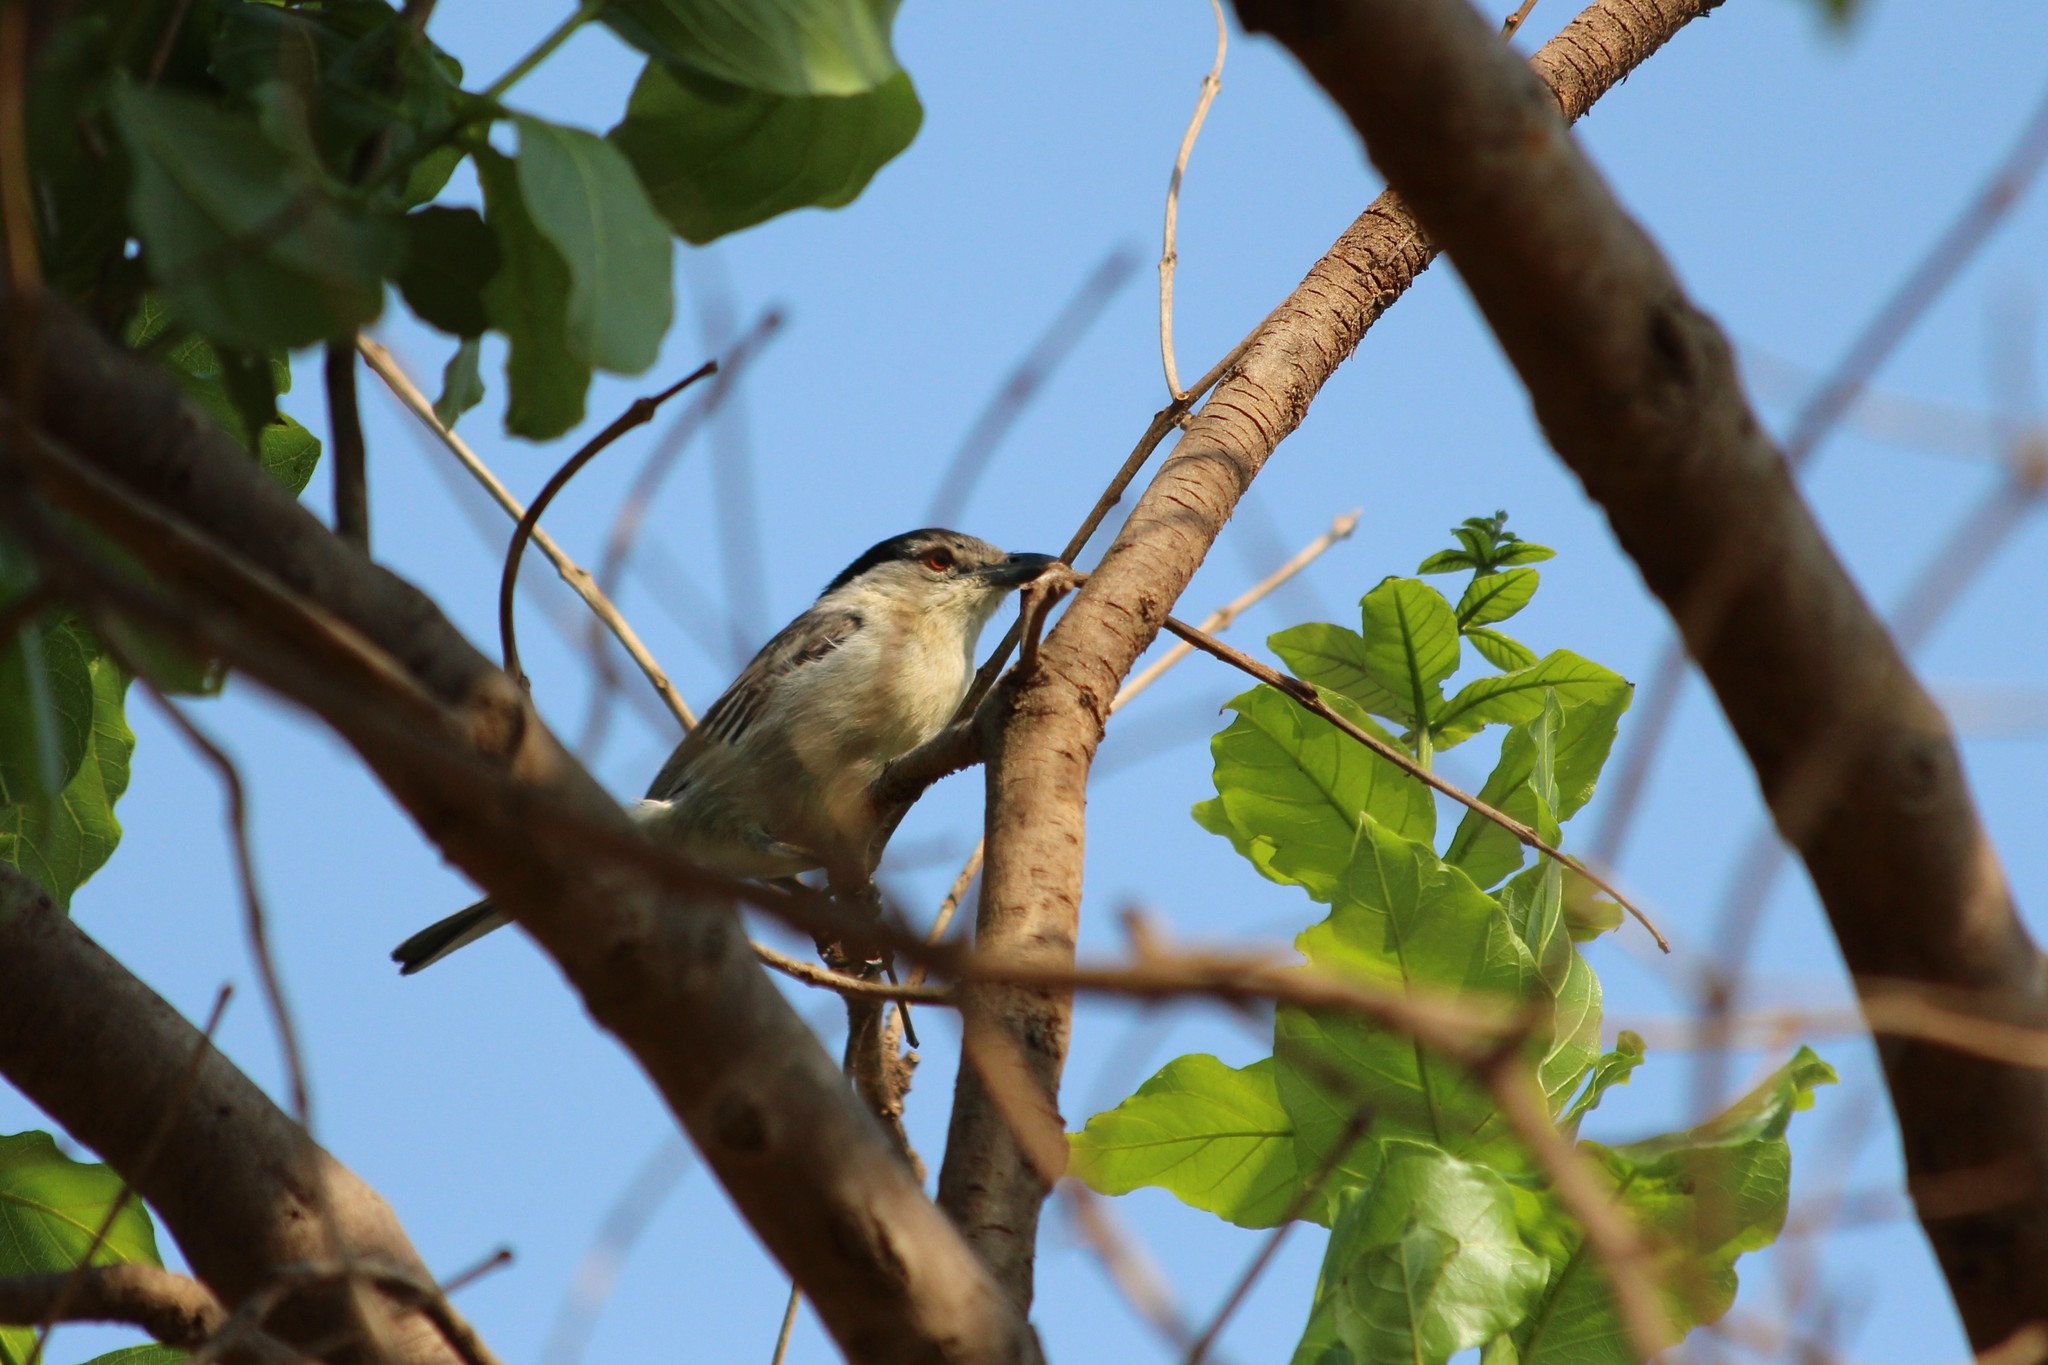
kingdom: Animalia
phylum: Chordata
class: Aves
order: Passeriformes
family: Malaconotidae
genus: Dryoscopus
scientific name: Dryoscopus cubla
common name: Black-backed puffback
